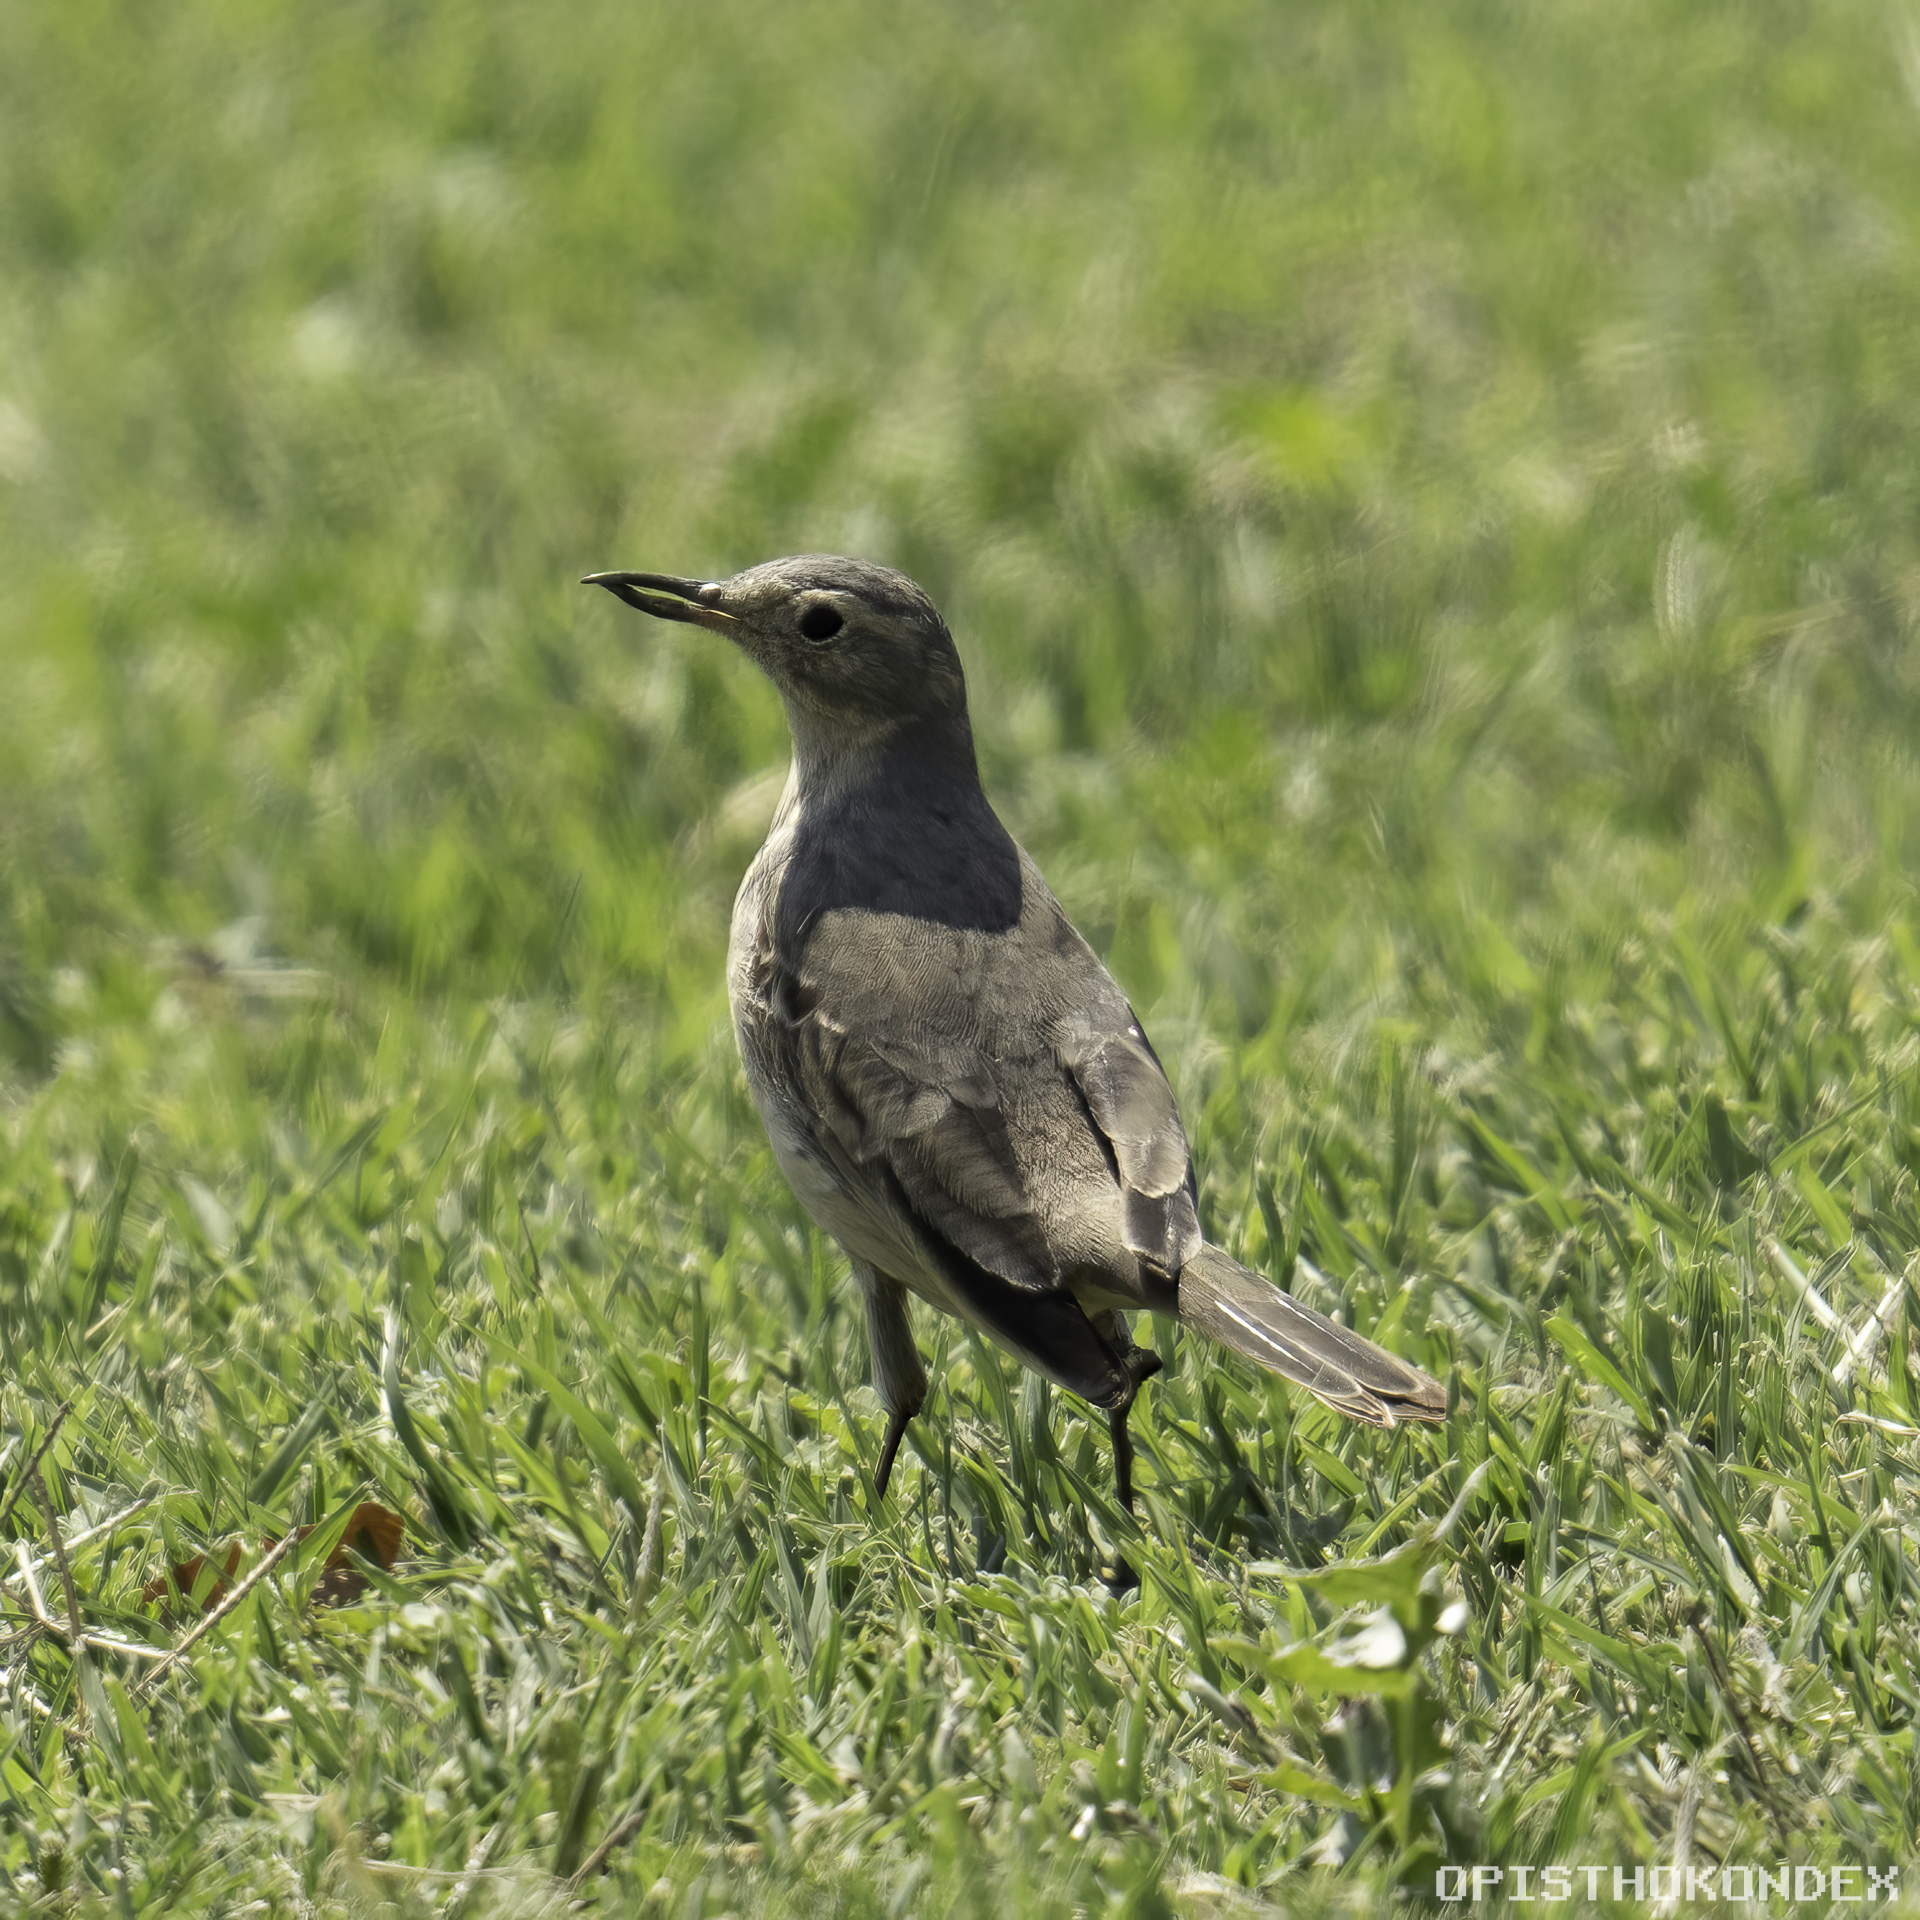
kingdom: Animalia
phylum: Chordata
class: Aves
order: Passeriformes
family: Motacillidae
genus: Anthus
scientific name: Anthus rubescens
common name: Buff-bellied pipit
